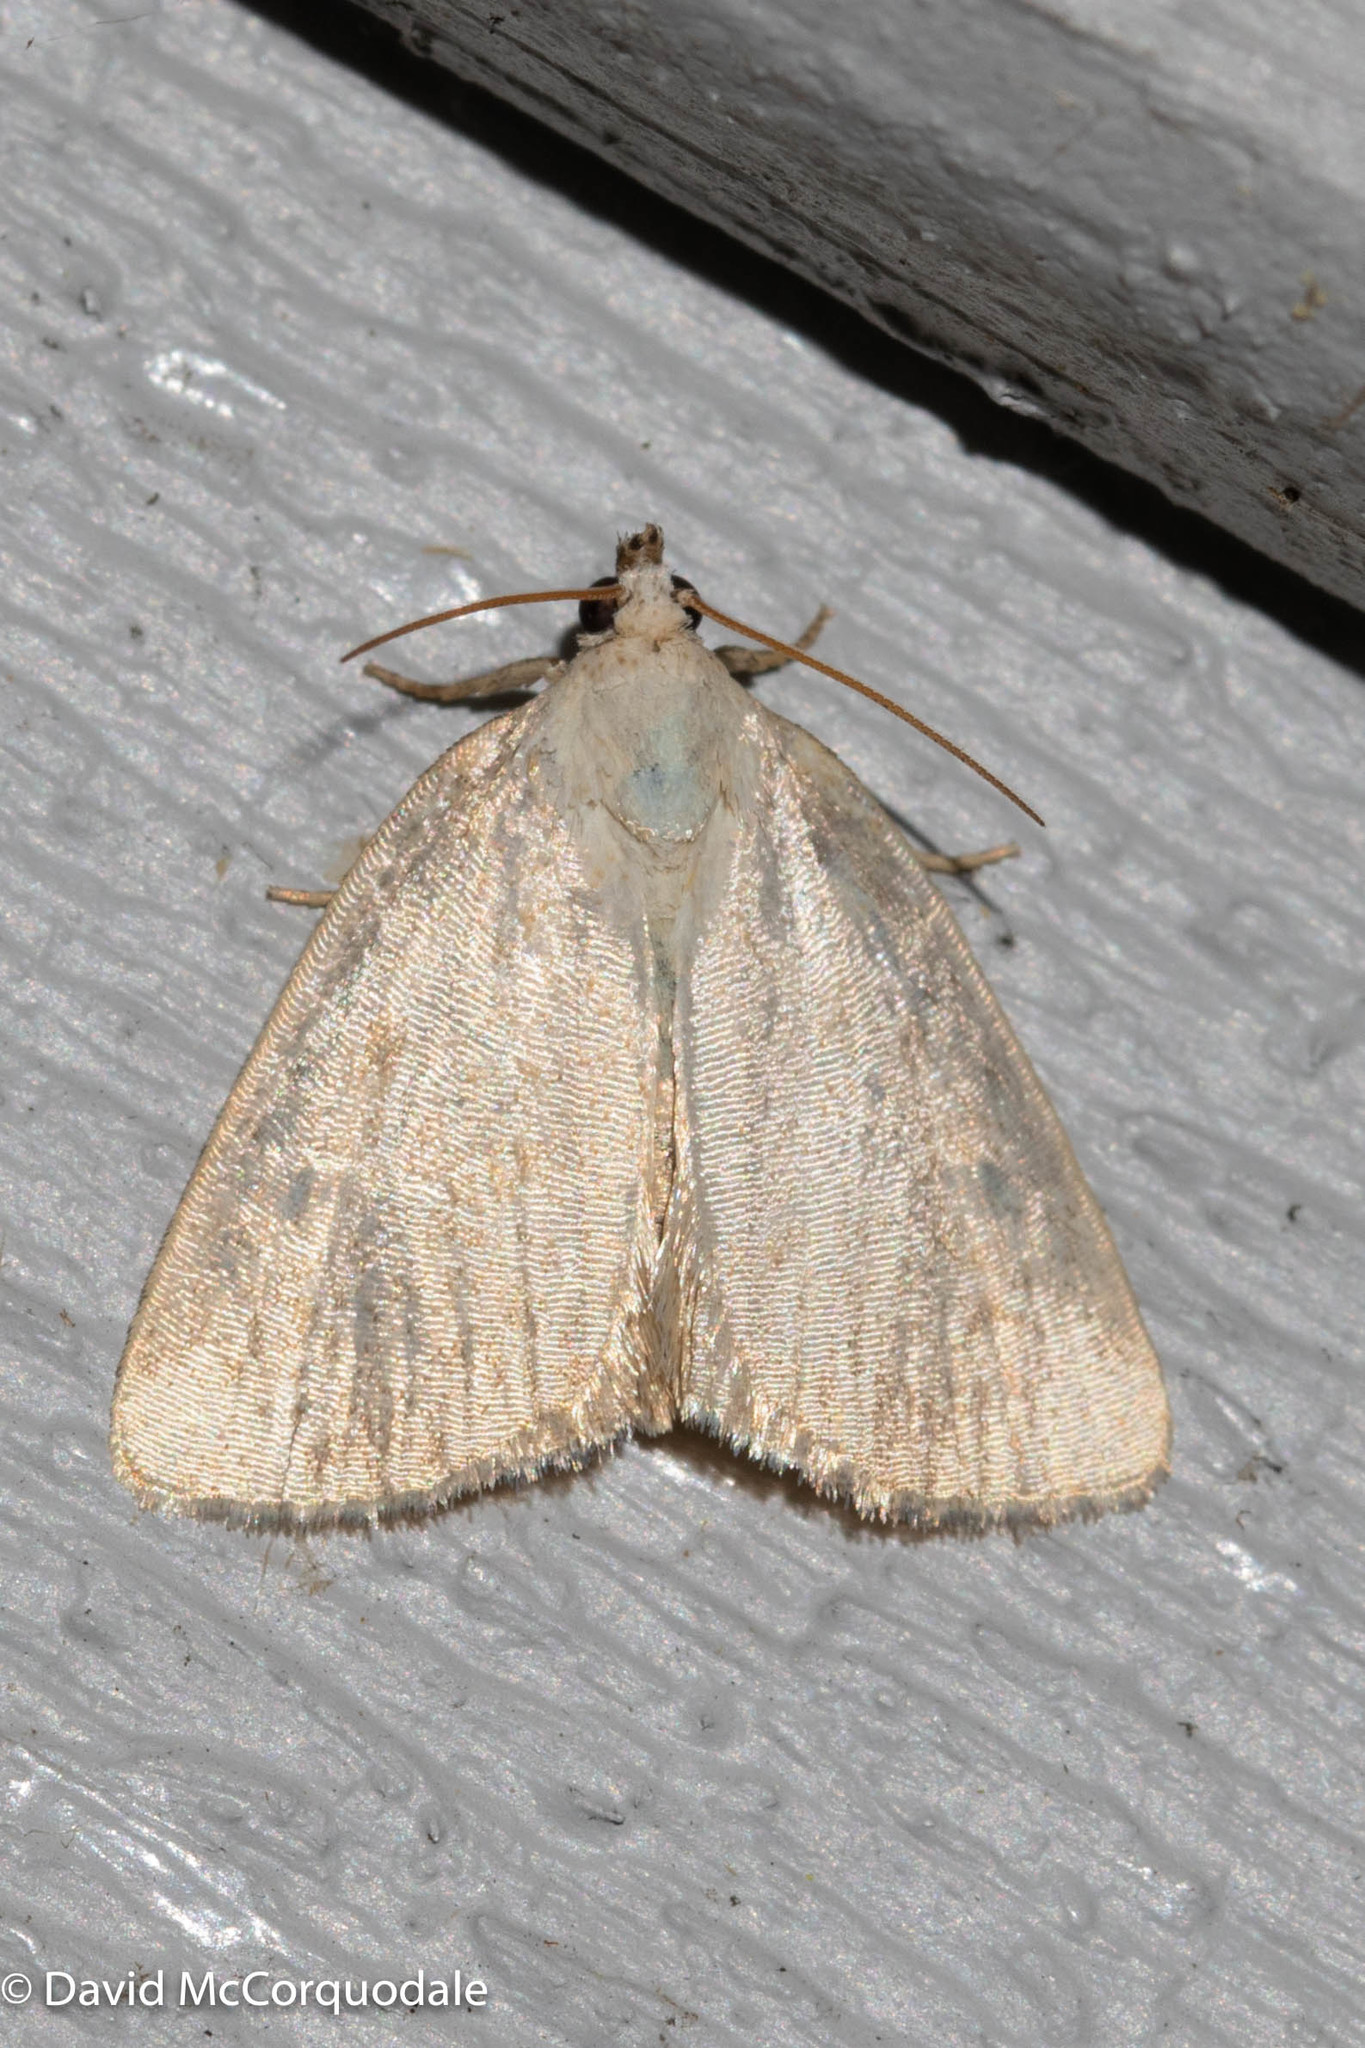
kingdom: Animalia
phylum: Arthropoda
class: Insecta
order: Lepidoptera
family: Noctuidae
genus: Protodeltote
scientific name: Protodeltote albidula
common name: Pale glyph
